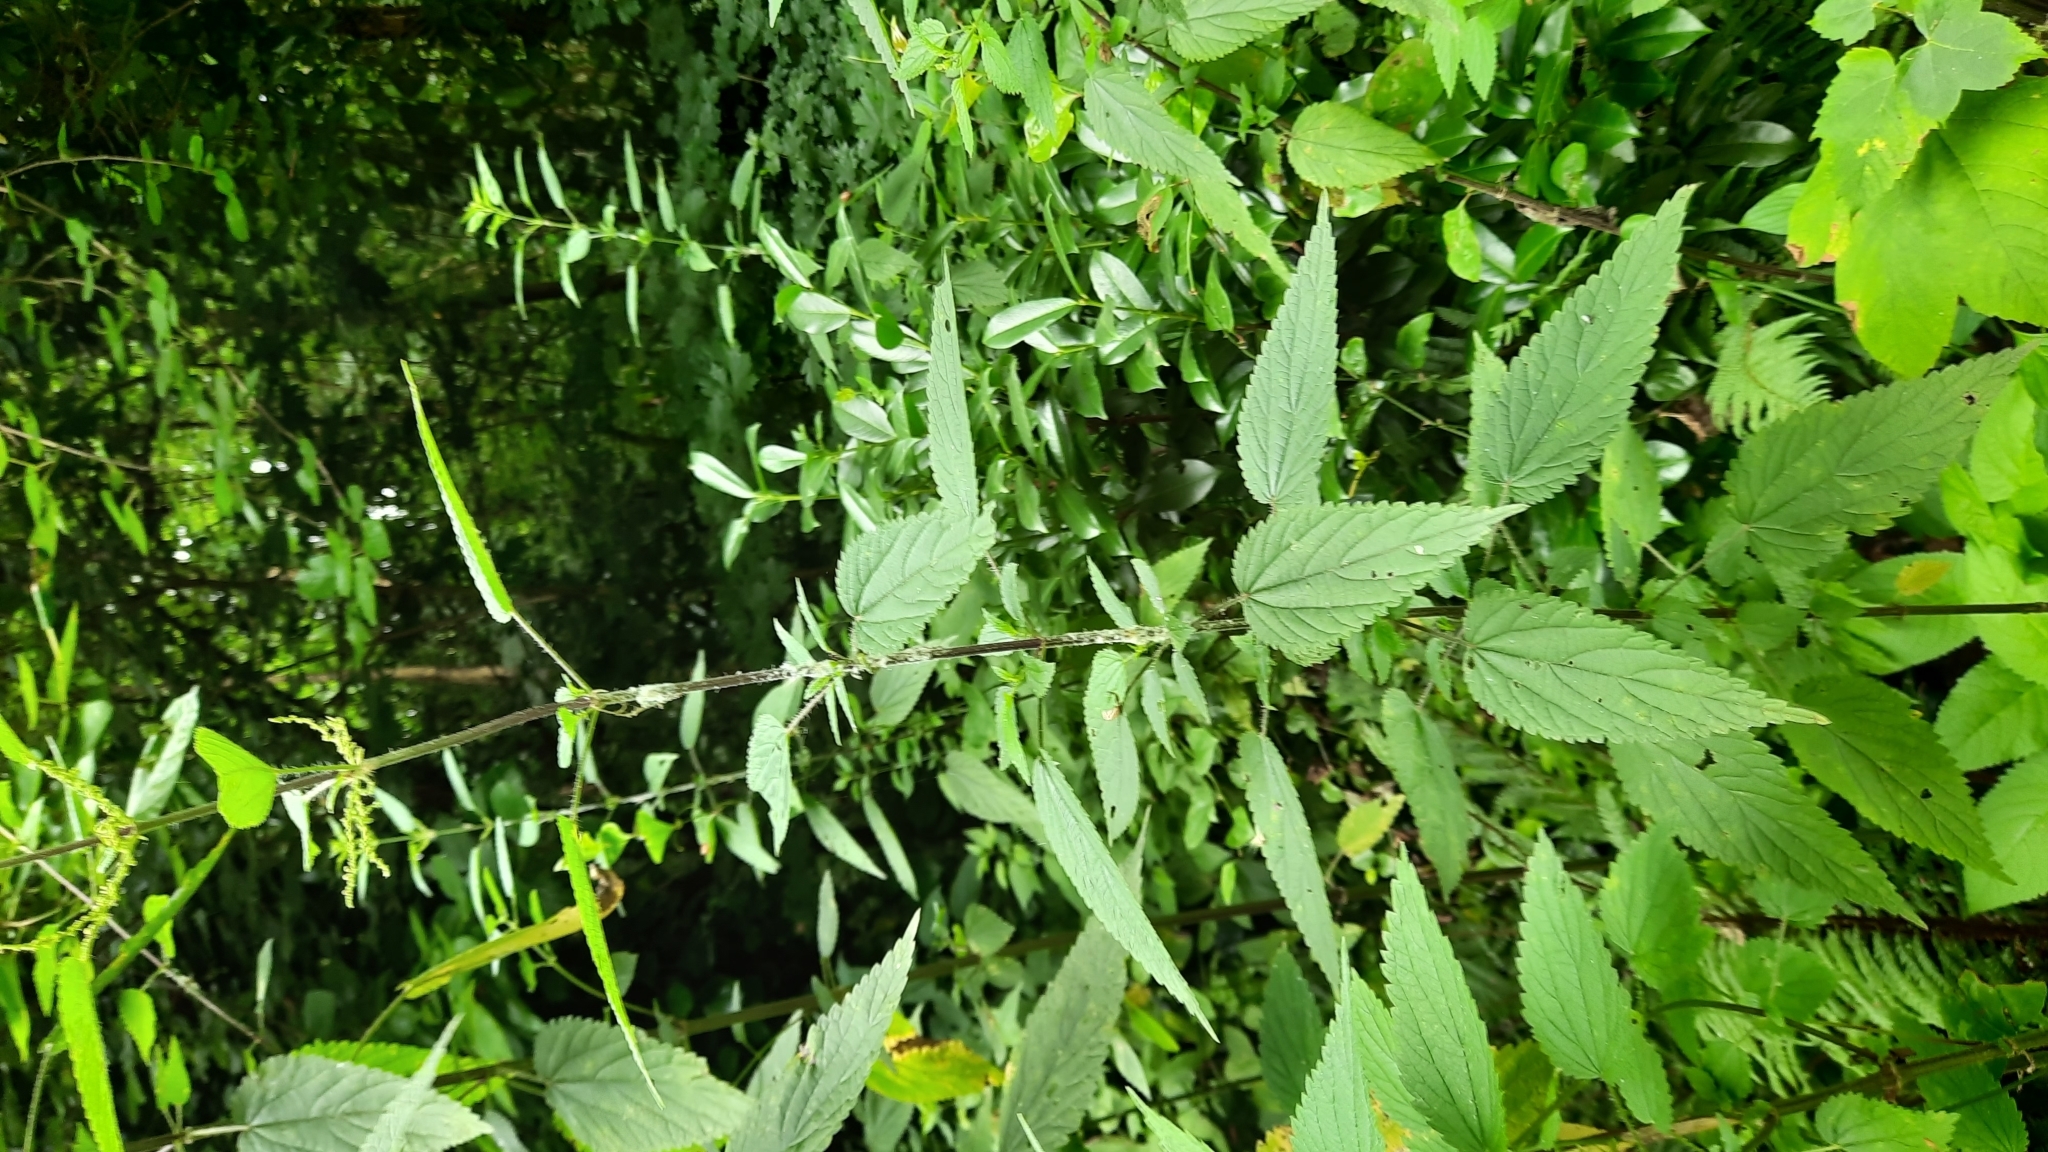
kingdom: Plantae
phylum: Tracheophyta
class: Magnoliopsida
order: Rosales
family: Urticaceae
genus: Urtica
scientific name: Urtica dioica
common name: Common nettle
